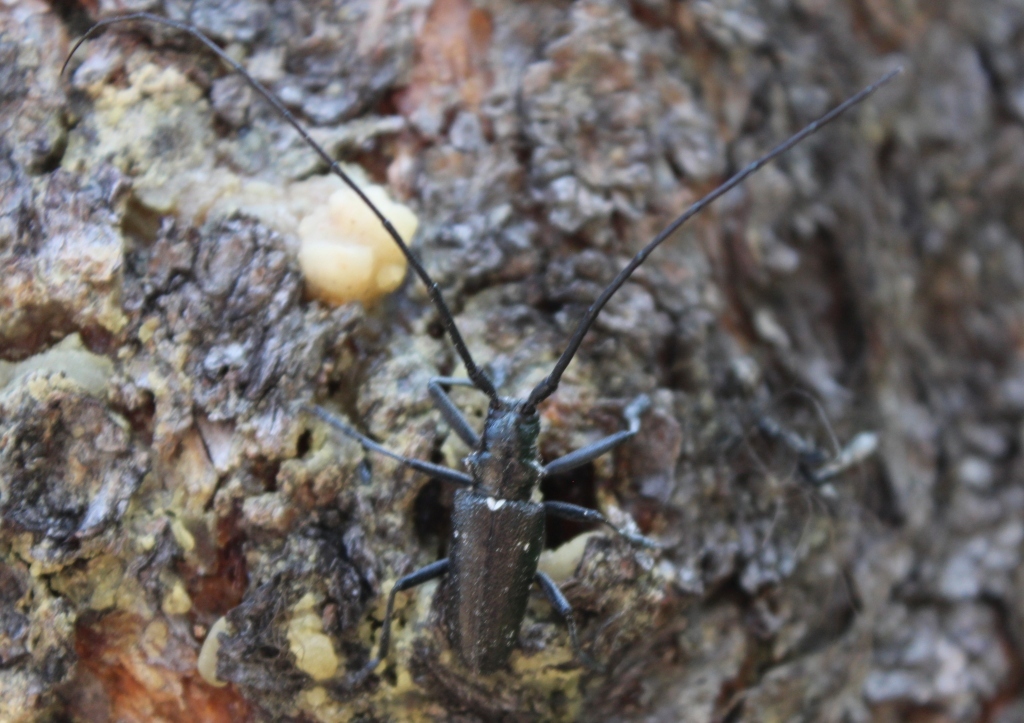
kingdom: Animalia
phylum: Arthropoda
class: Insecta
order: Coleoptera
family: Cerambycidae
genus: Monochamus
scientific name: Monochamus scutellatus
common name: White-spotted sawyer beetle
